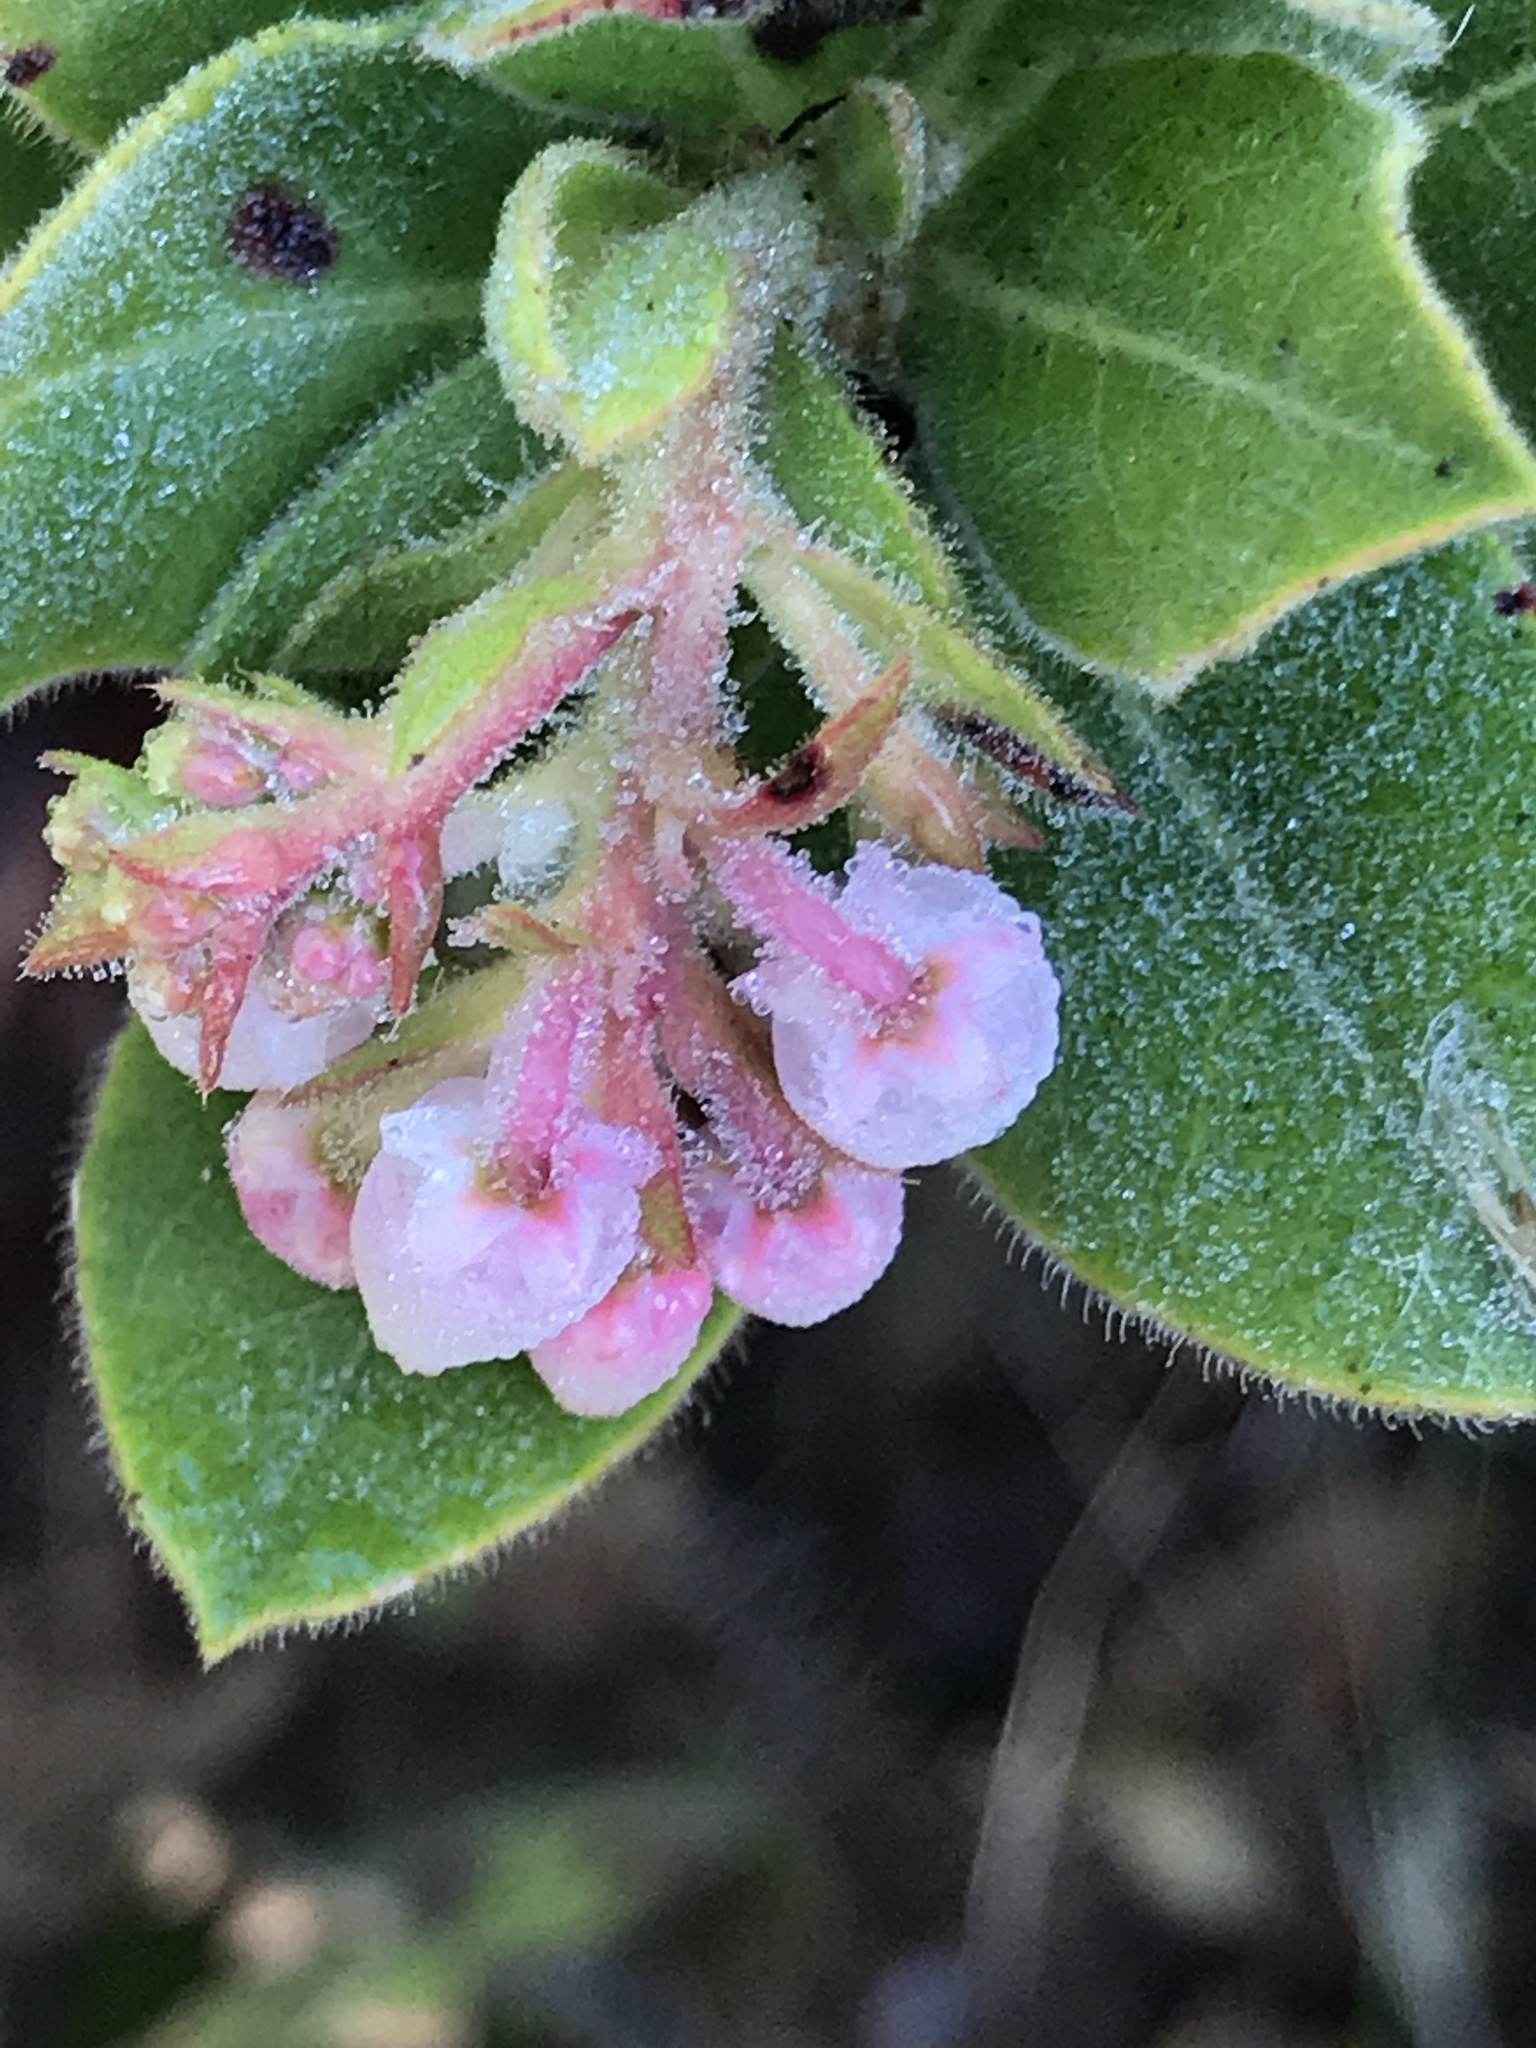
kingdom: Plantae
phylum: Tracheophyta
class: Magnoliopsida
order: Ericales
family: Ericaceae
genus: Arctostaphylos
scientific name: Arctostaphylos regismontana
